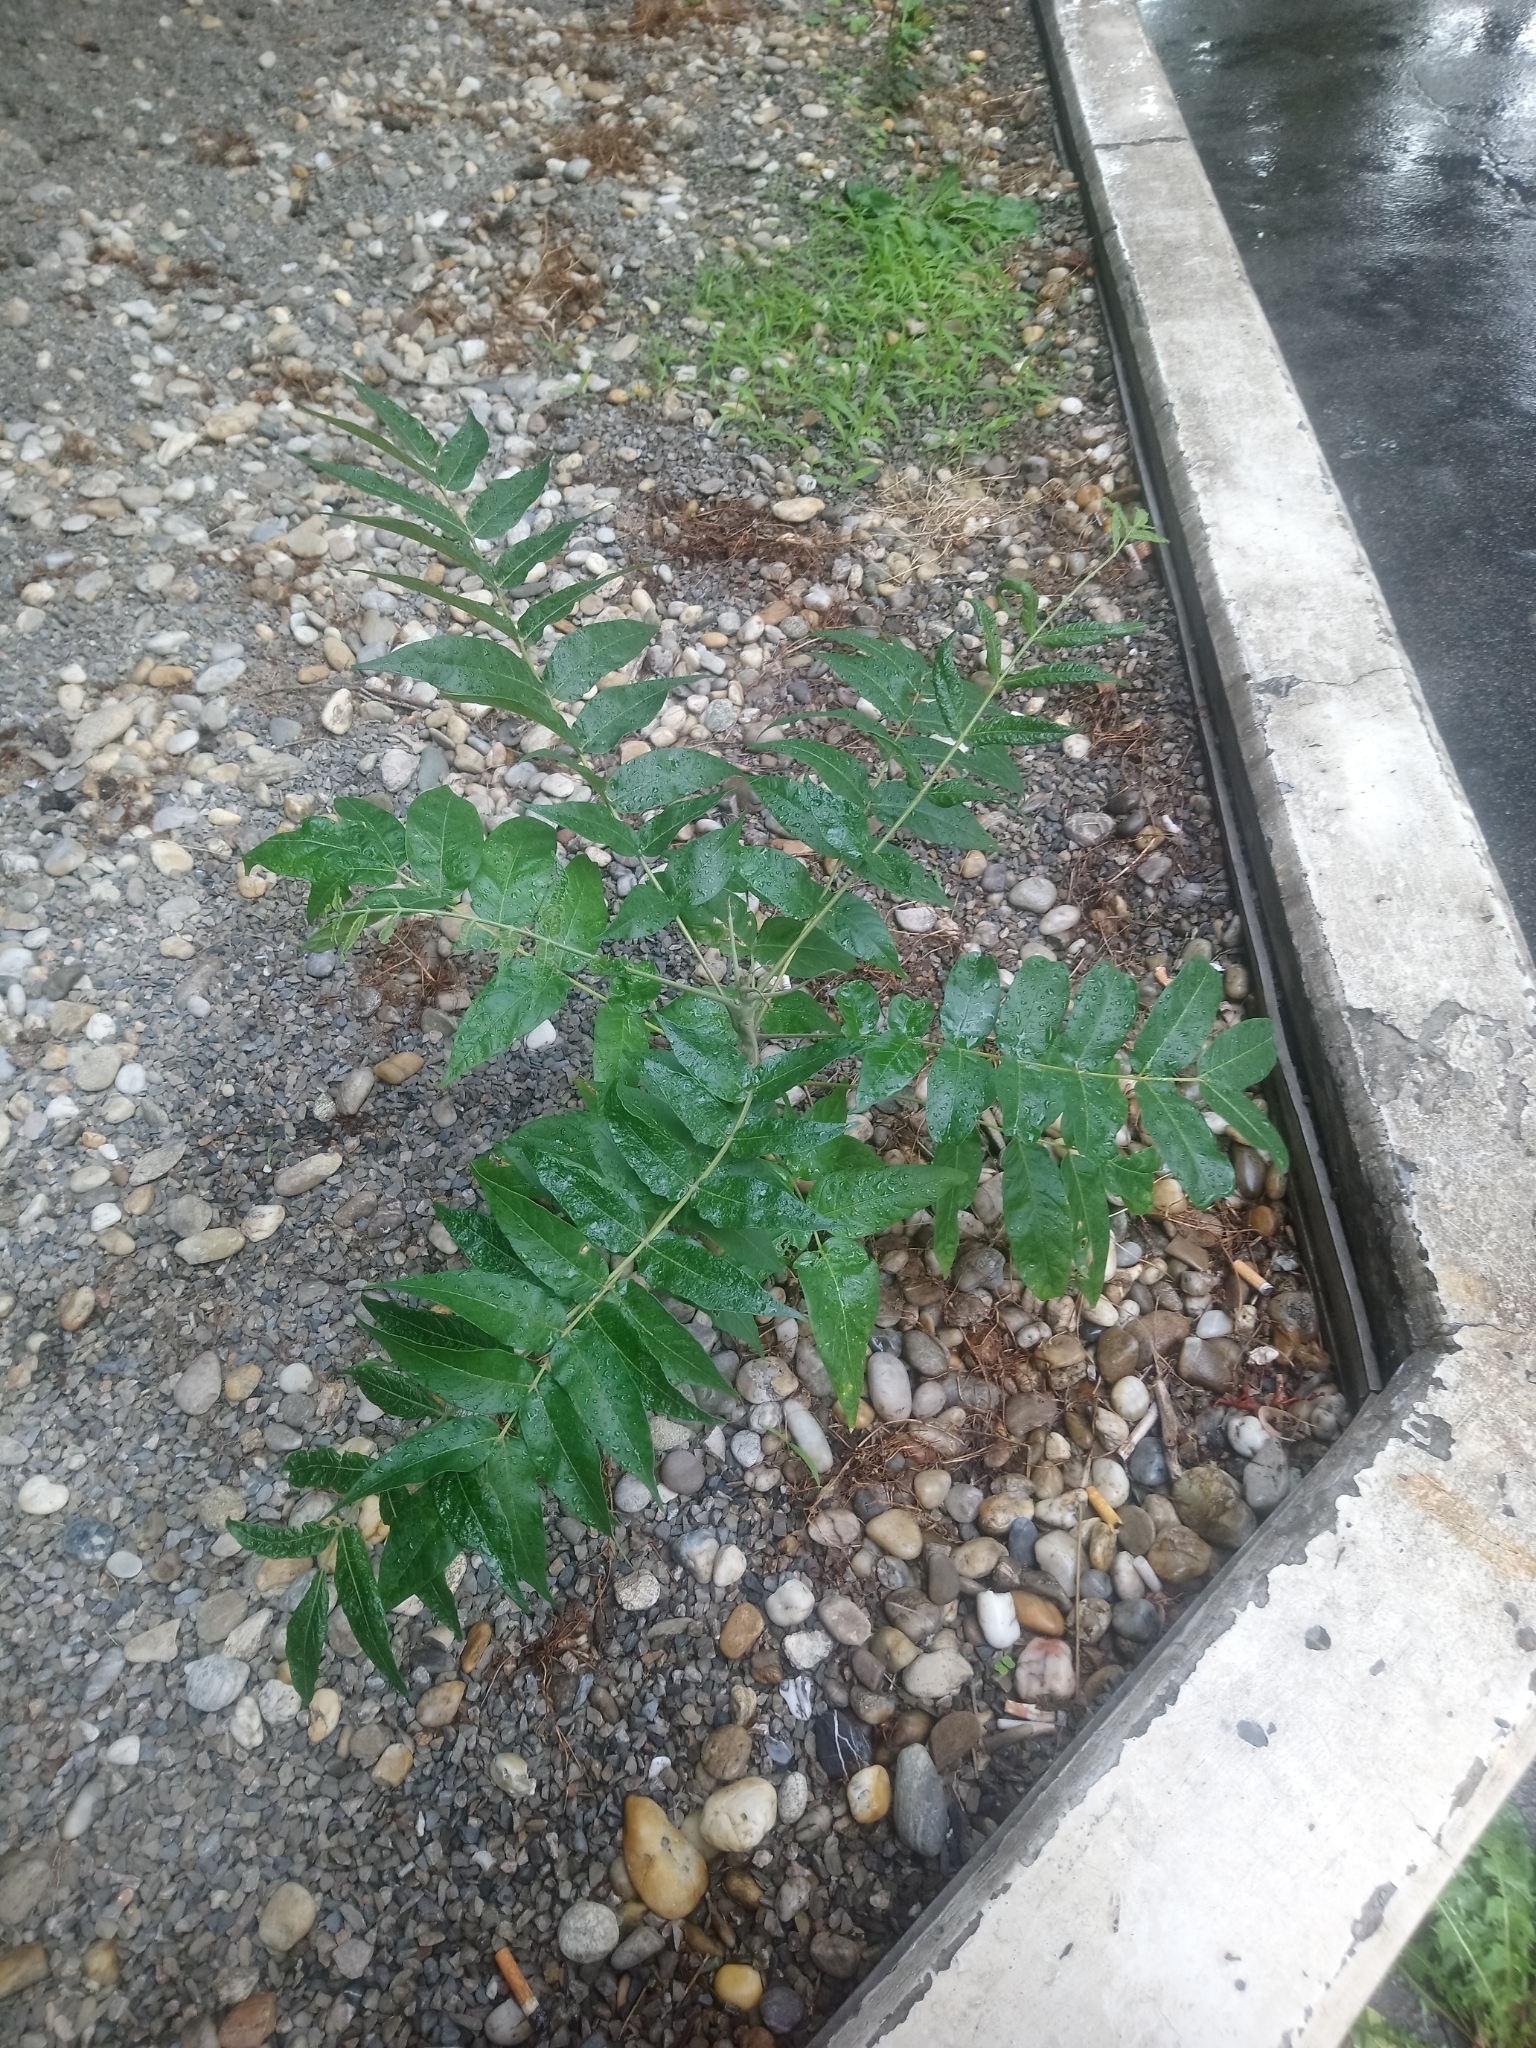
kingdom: Plantae
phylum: Tracheophyta
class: Magnoliopsida
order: Sapindales
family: Simaroubaceae
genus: Ailanthus
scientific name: Ailanthus altissima
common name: Tree-of-heaven
